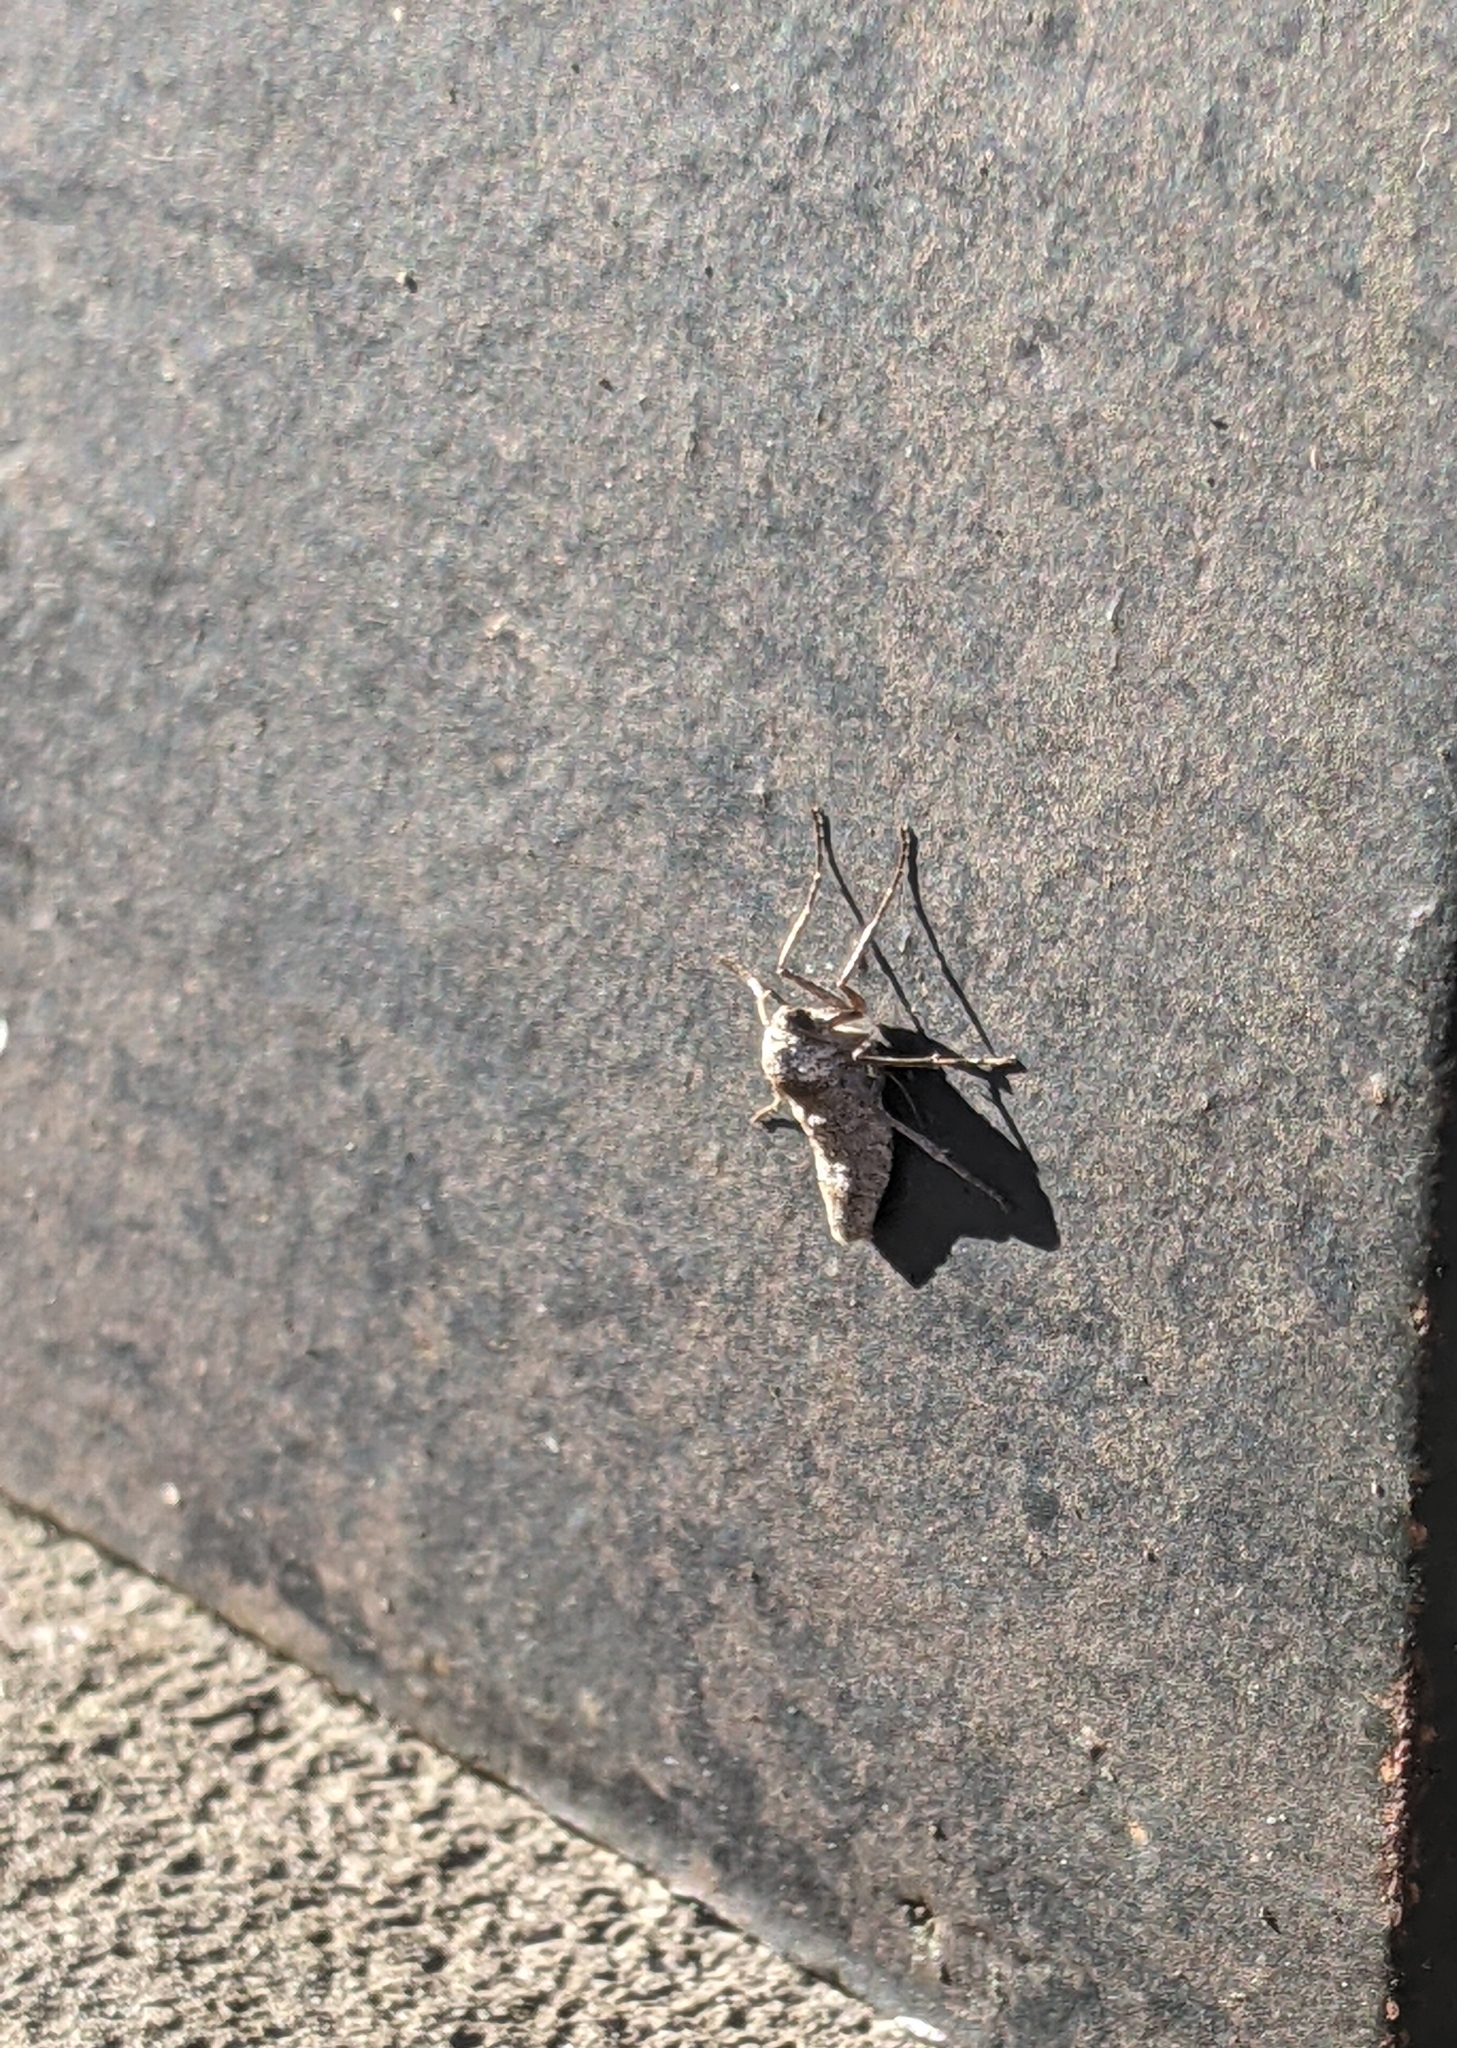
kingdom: Animalia
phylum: Arthropoda
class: Insecta
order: Lepidoptera
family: Geometridae
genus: Alsophila
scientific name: Alsophila pometaria
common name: Fall cankerworm
